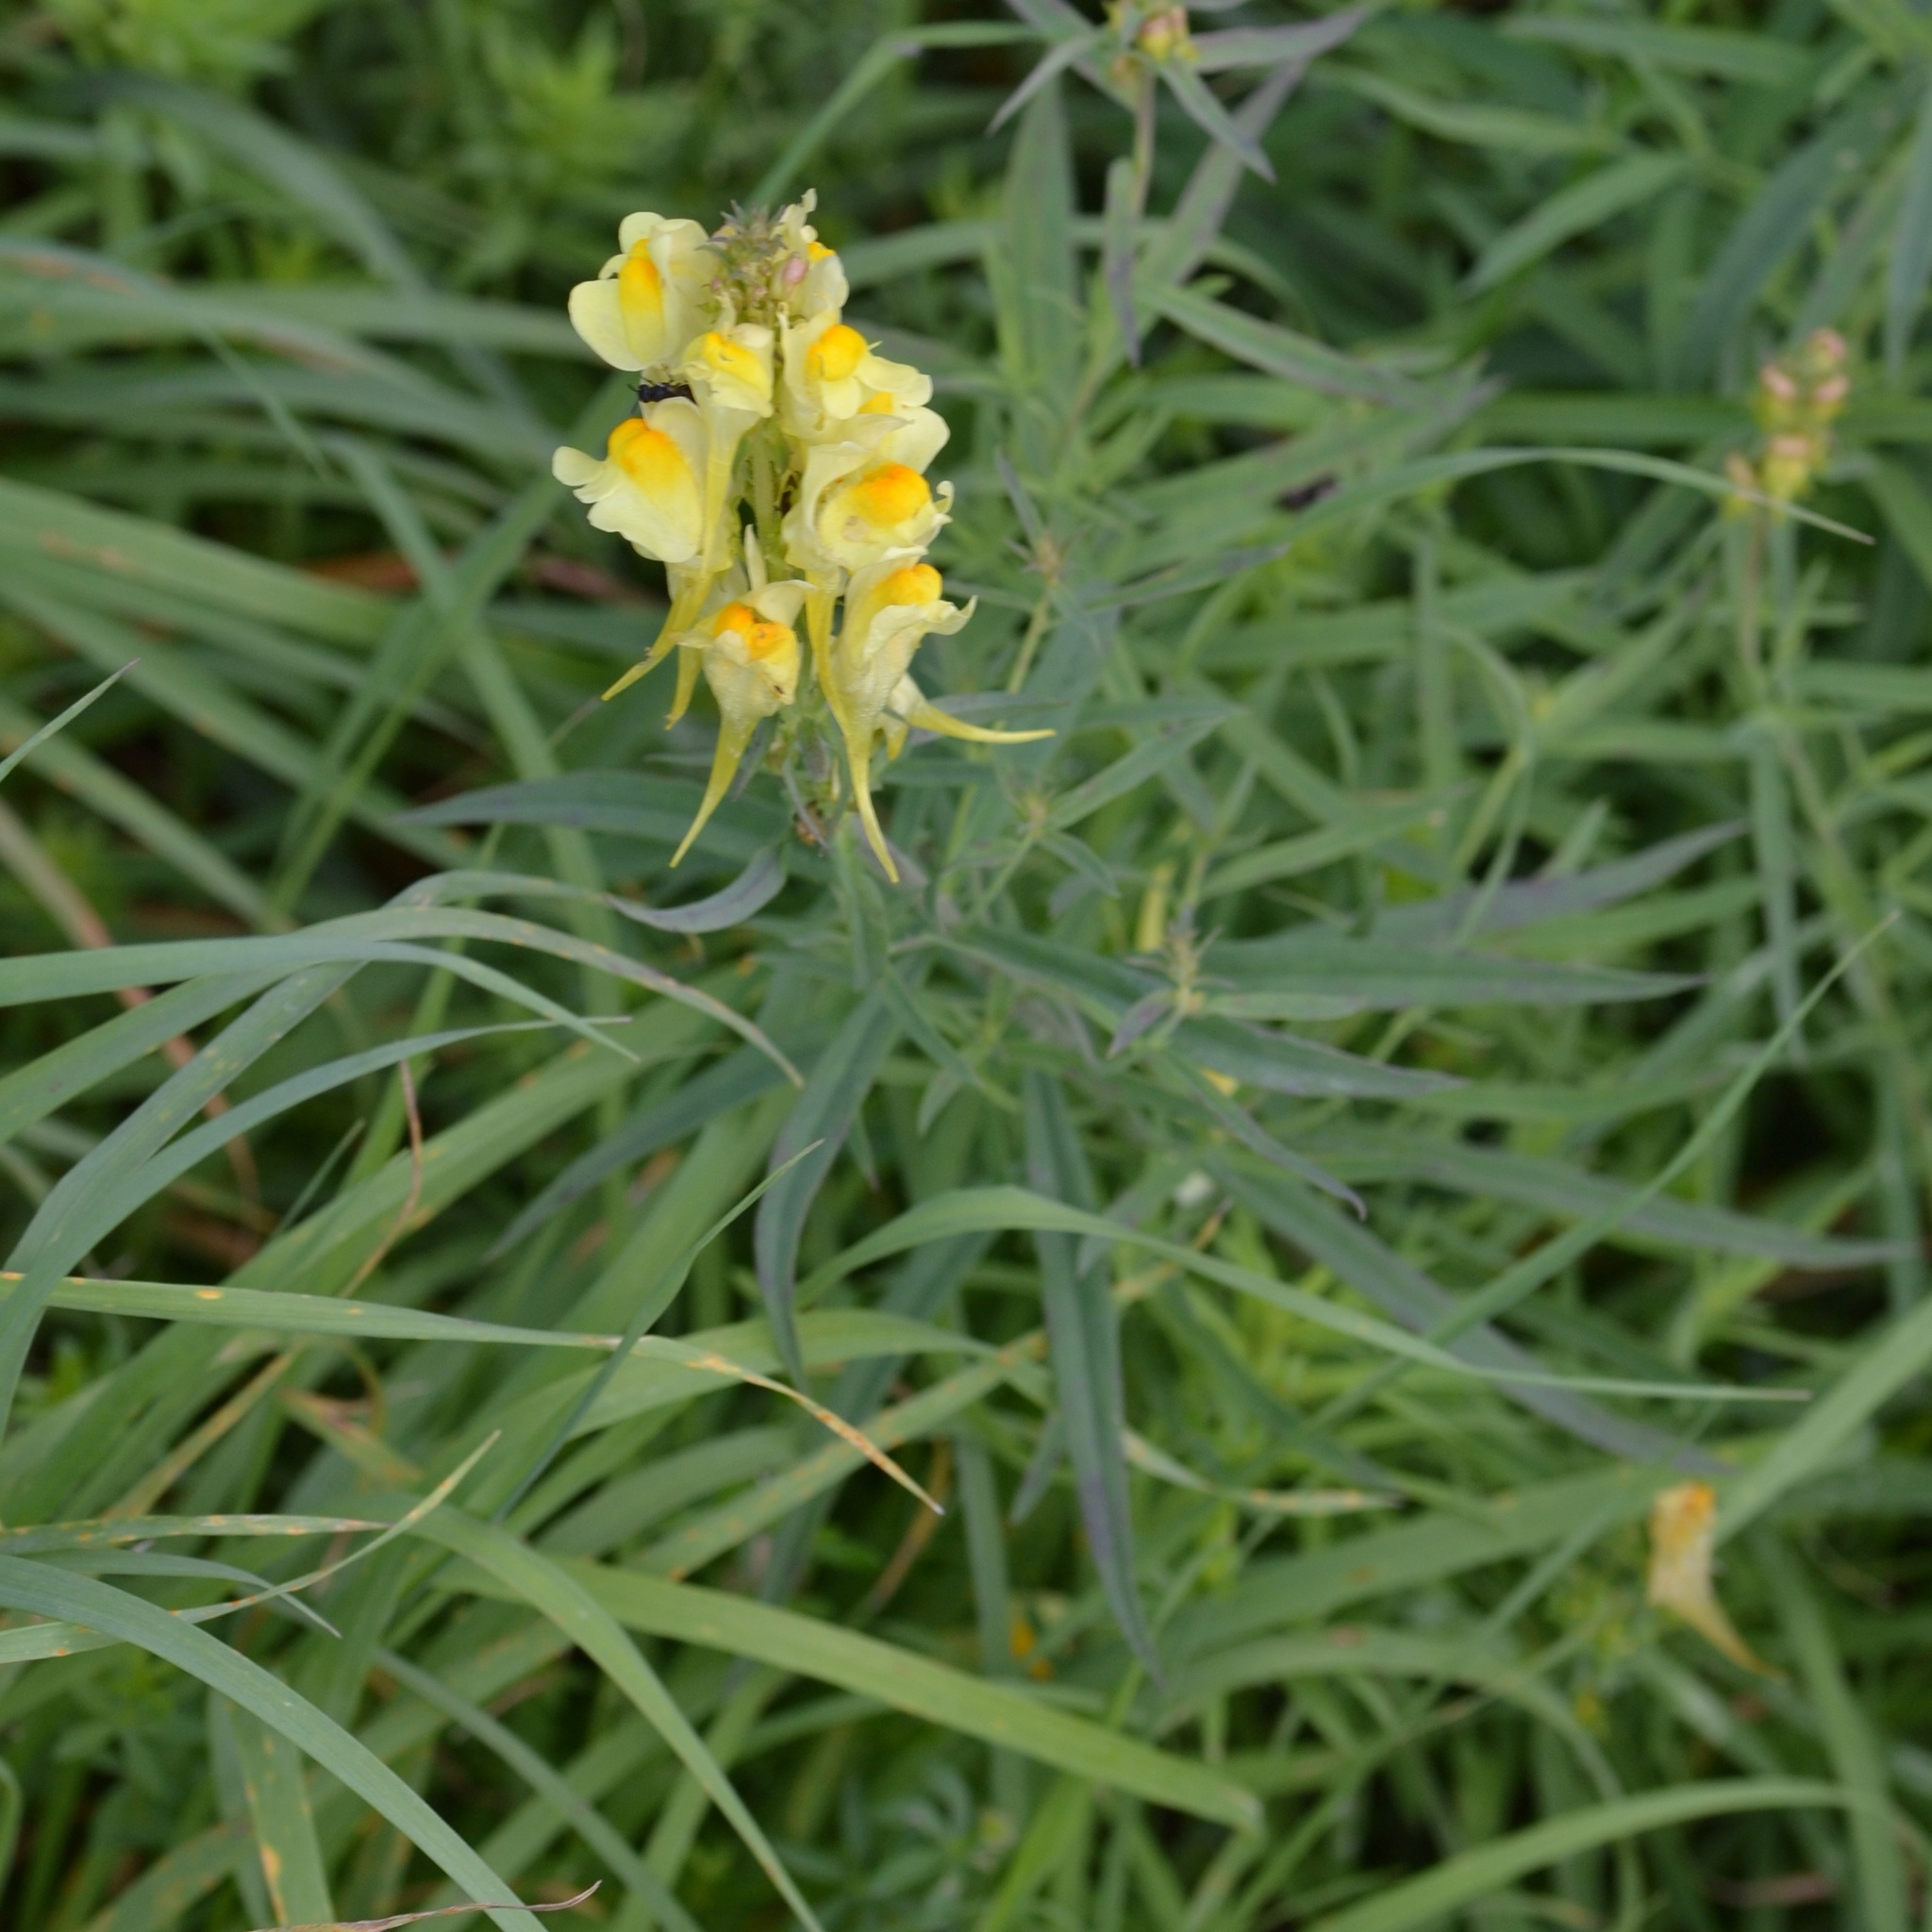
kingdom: Plantae
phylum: Tracheophyta
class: Magnoliopsida
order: Lamiales
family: Plantaginaceae
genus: Linaria
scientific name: Linaria vulgaris
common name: Butter and eggs
